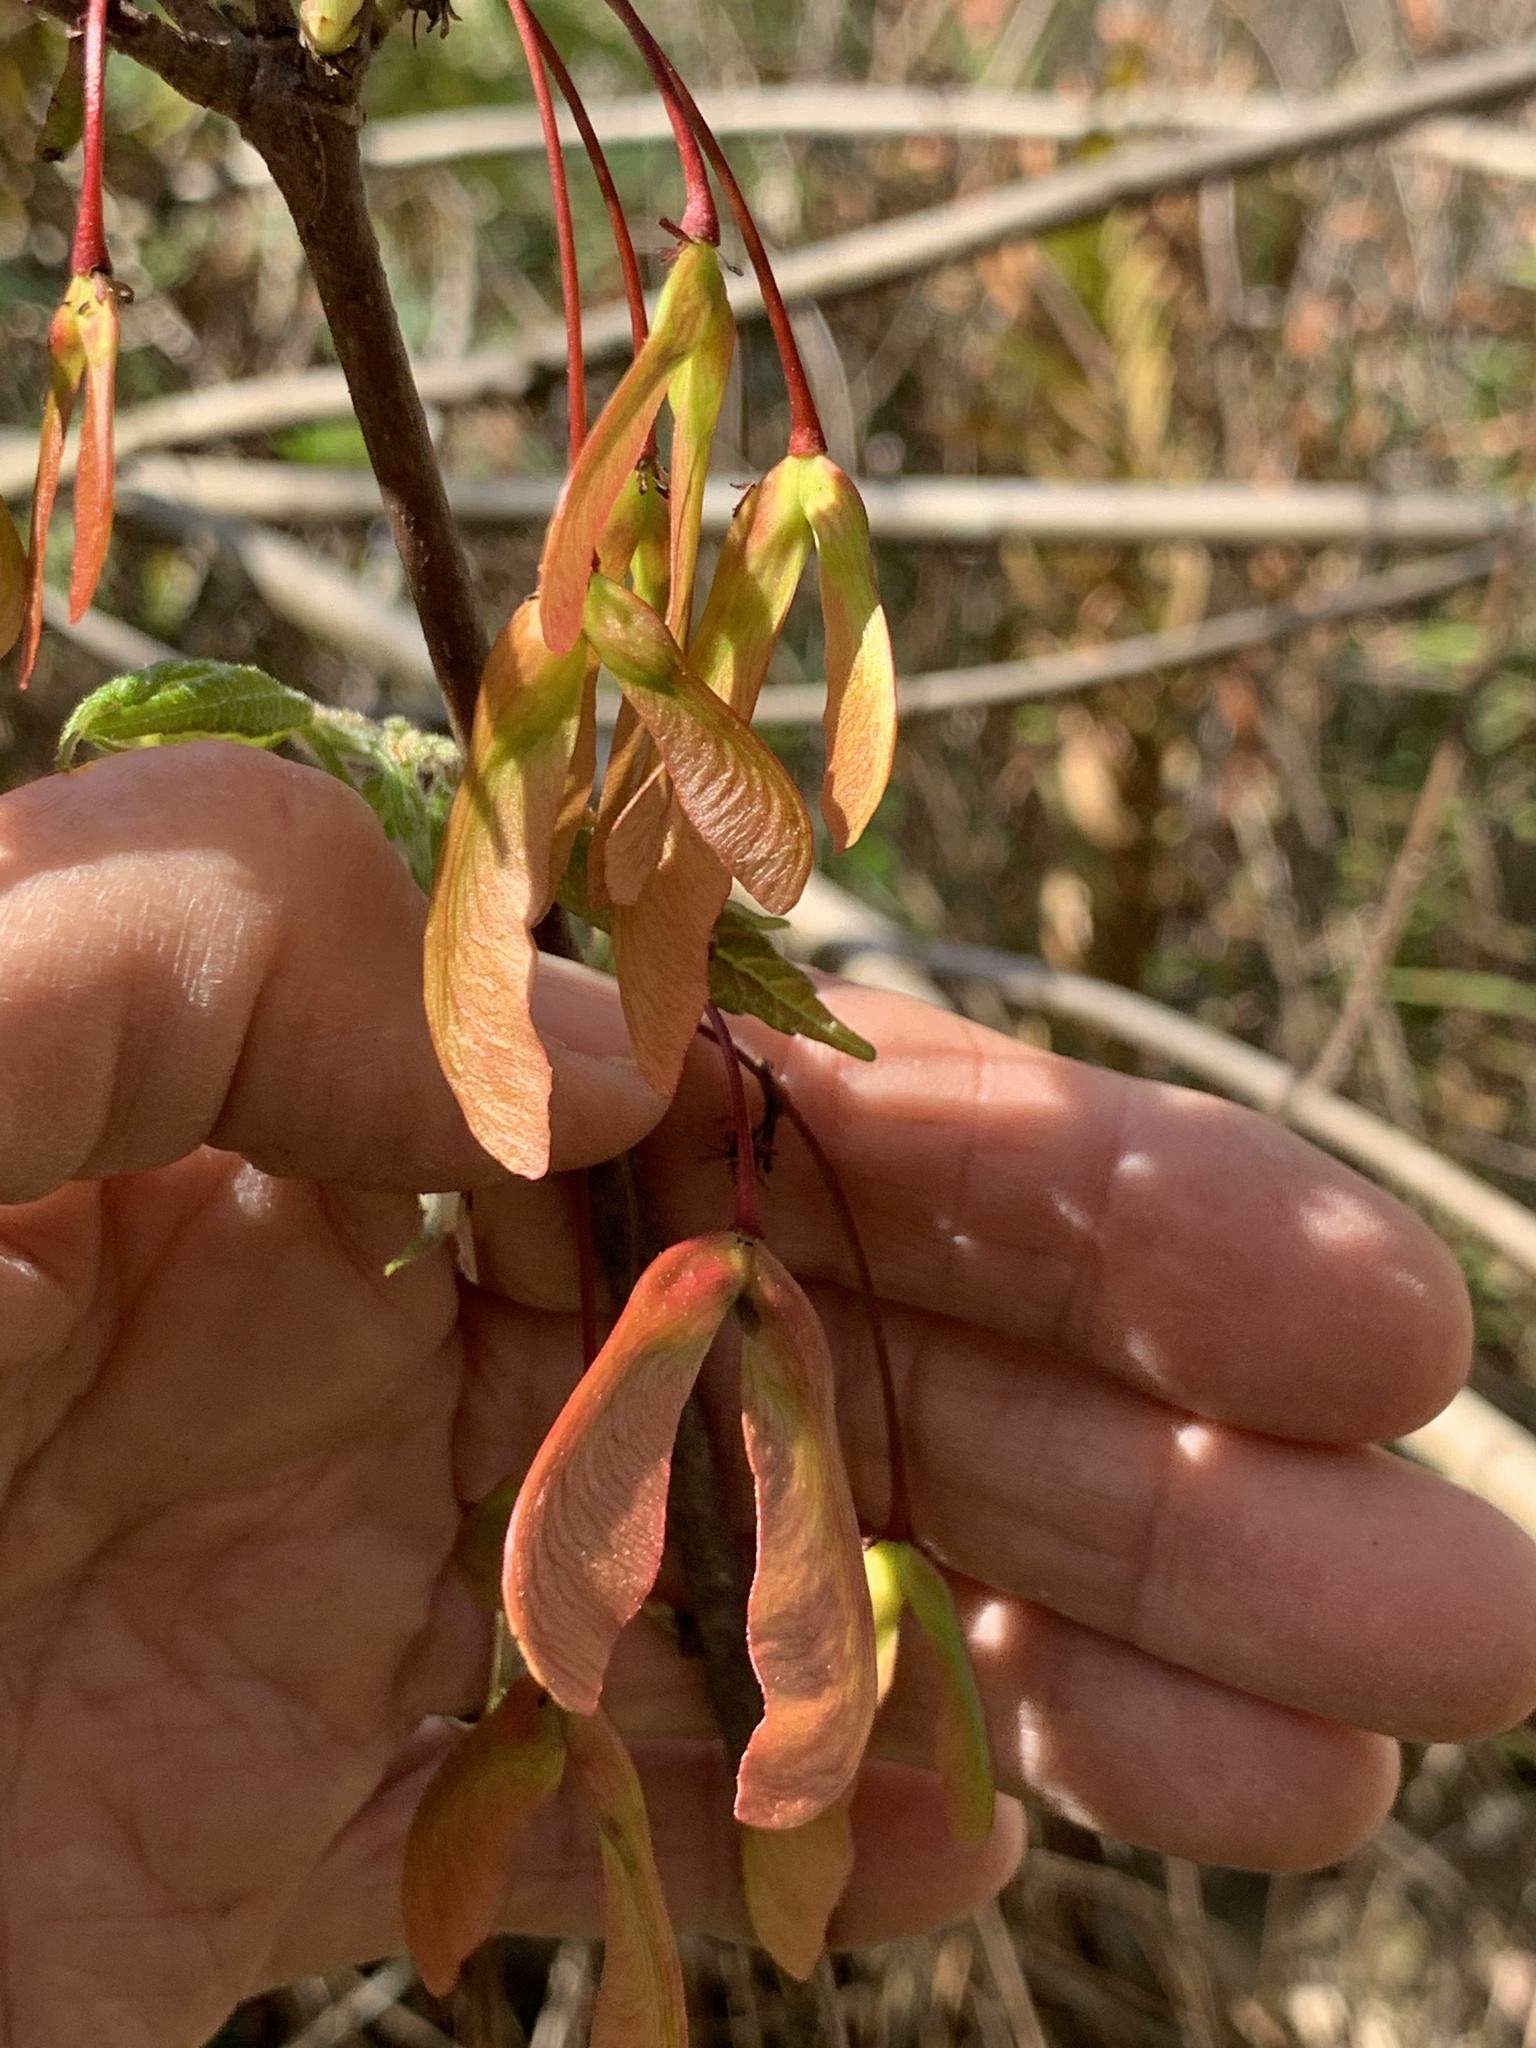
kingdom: Plantae
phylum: Tracheophyta
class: Magnoliopsida
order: Sapindales
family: Sapindaceae
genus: Acer
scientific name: Acer rubrum
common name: Red maple
